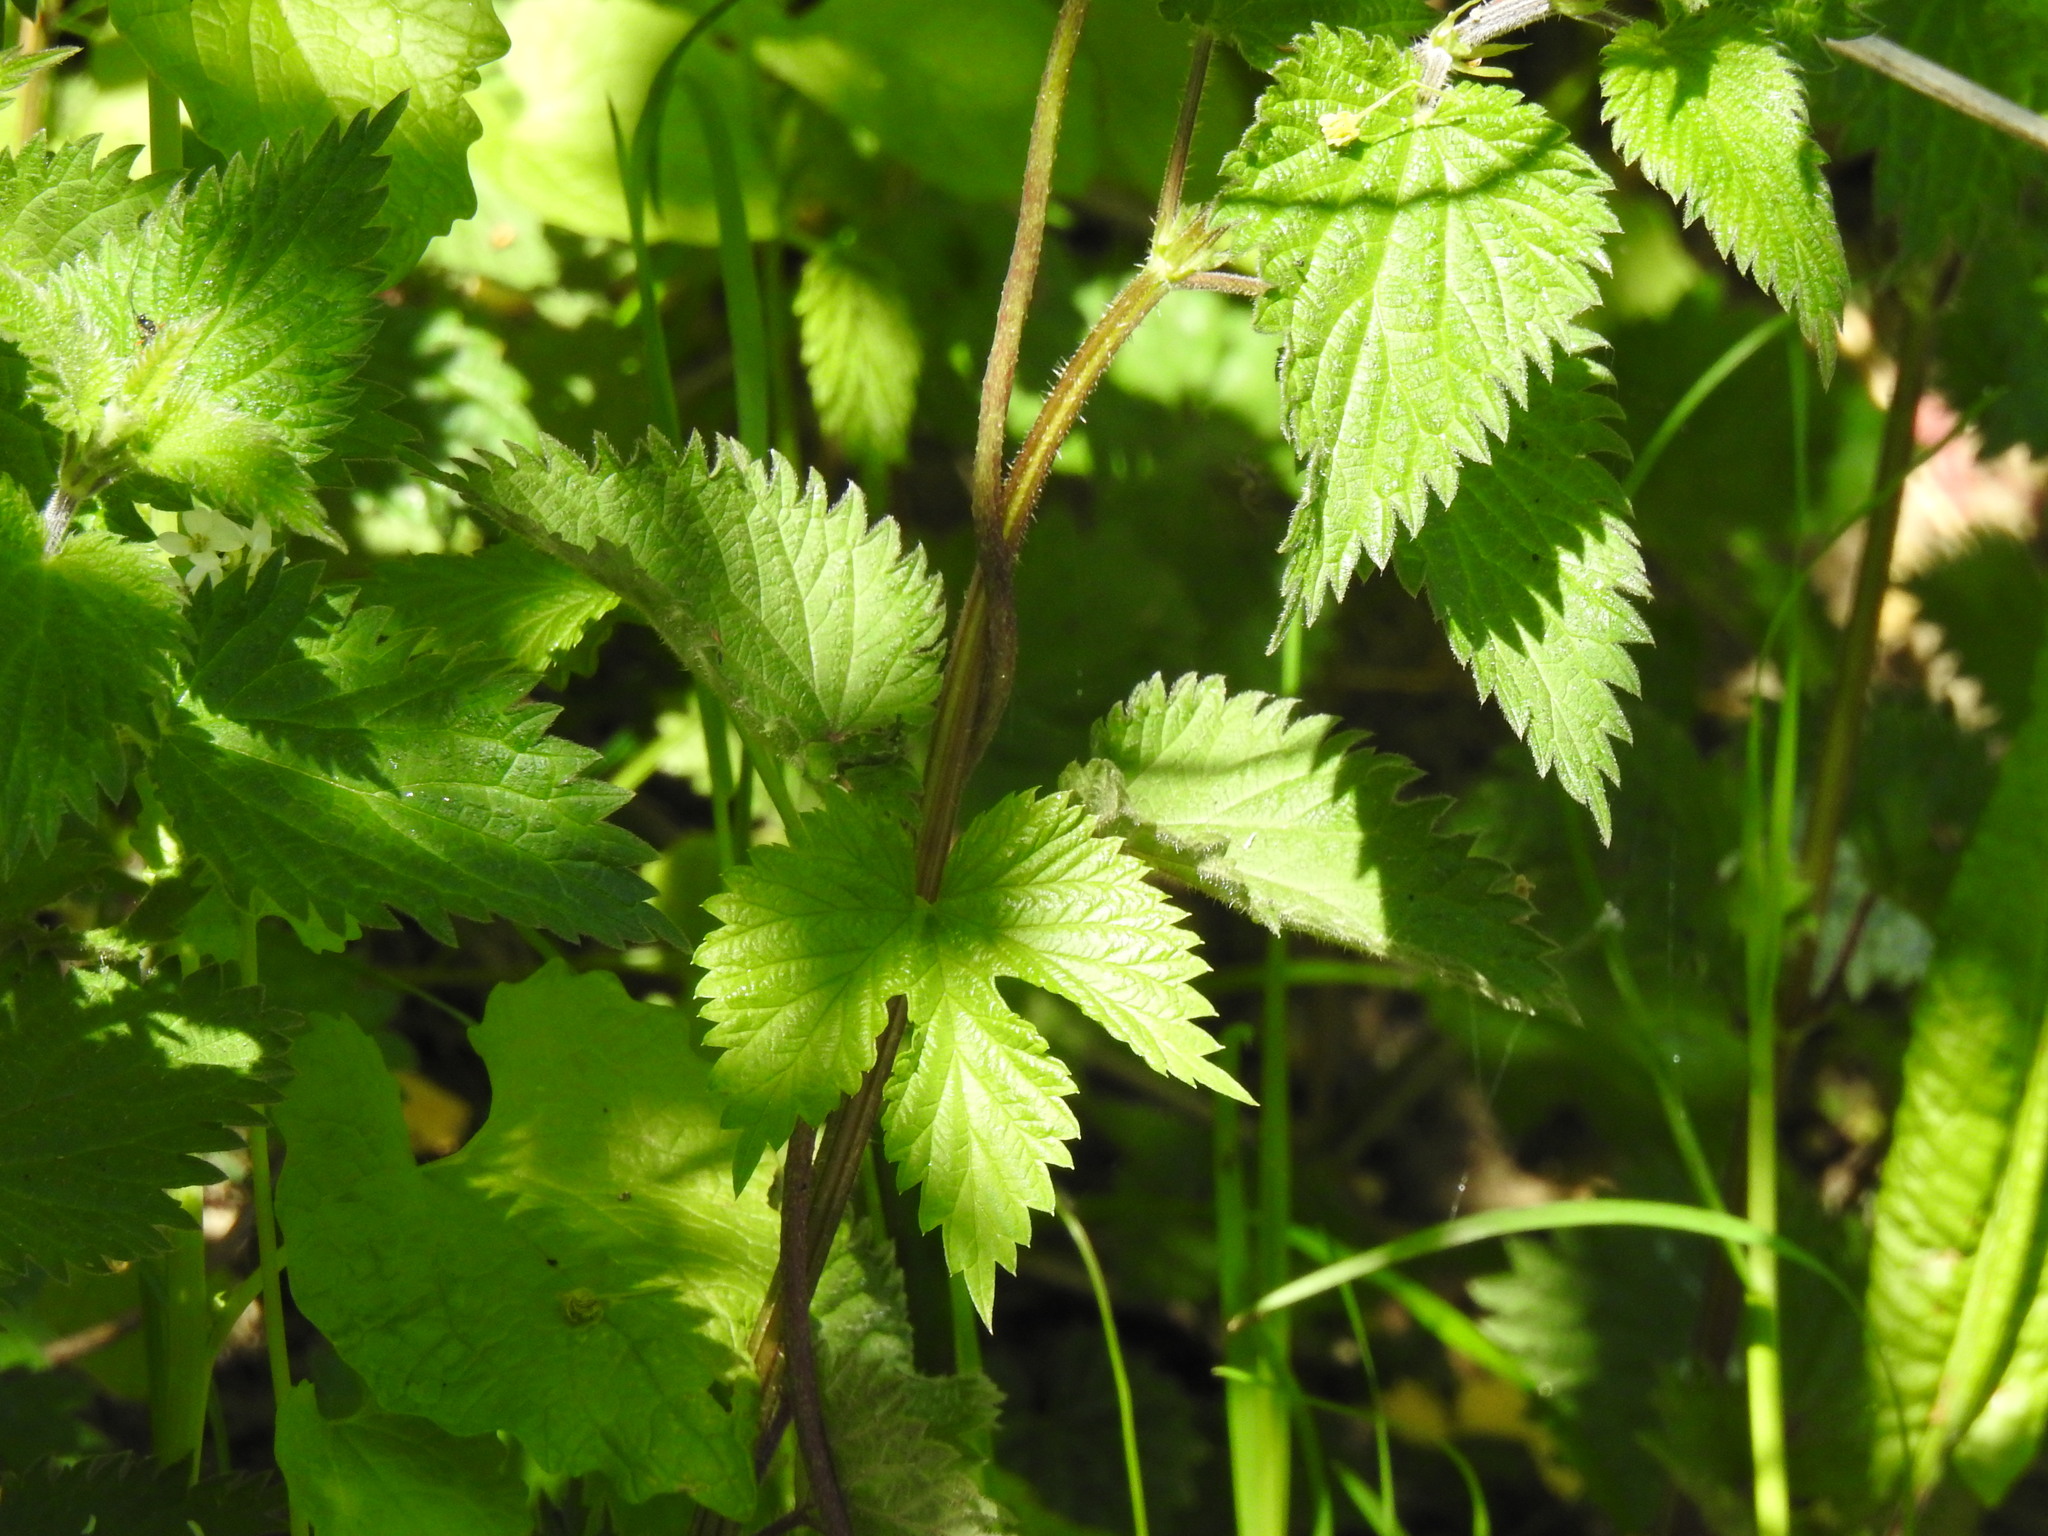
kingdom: Plantae
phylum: Tracheophyta
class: Magnoliopsida
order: Rosales
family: Cannabaceae
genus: Humulus
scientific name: Humulus lupulus
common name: Hop
